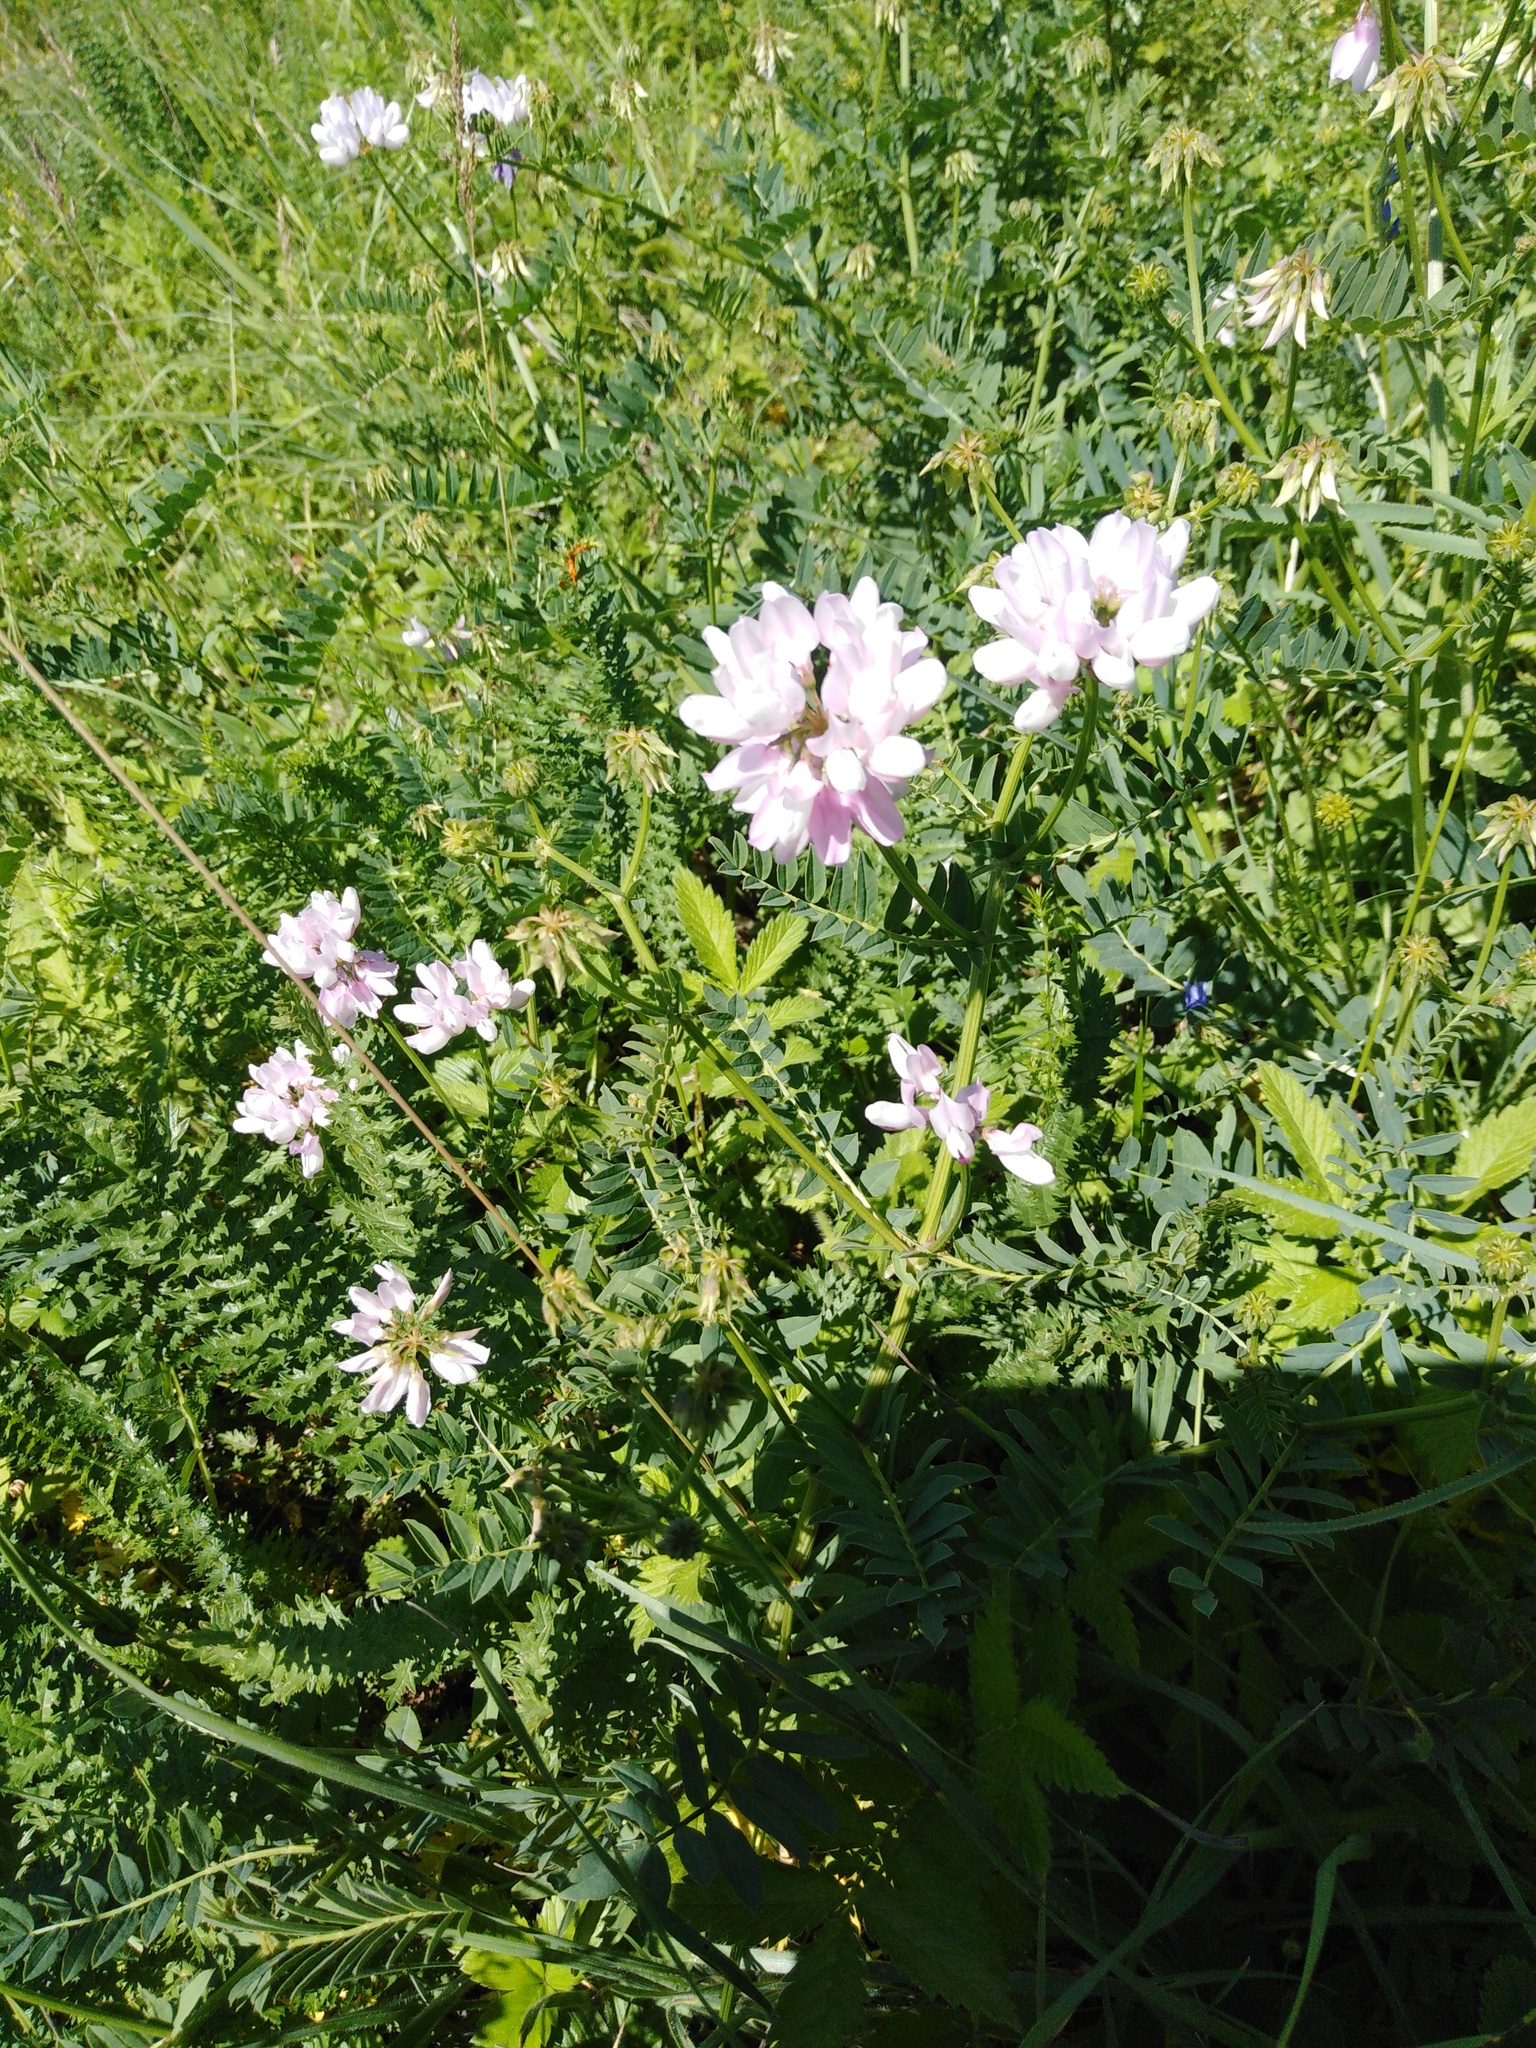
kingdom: Plantae
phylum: Tracheophyta
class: Magnoliopsida
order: Fabales
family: Fabaceae
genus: Coronilla
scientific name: Coronilla varia
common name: Crownvetch
